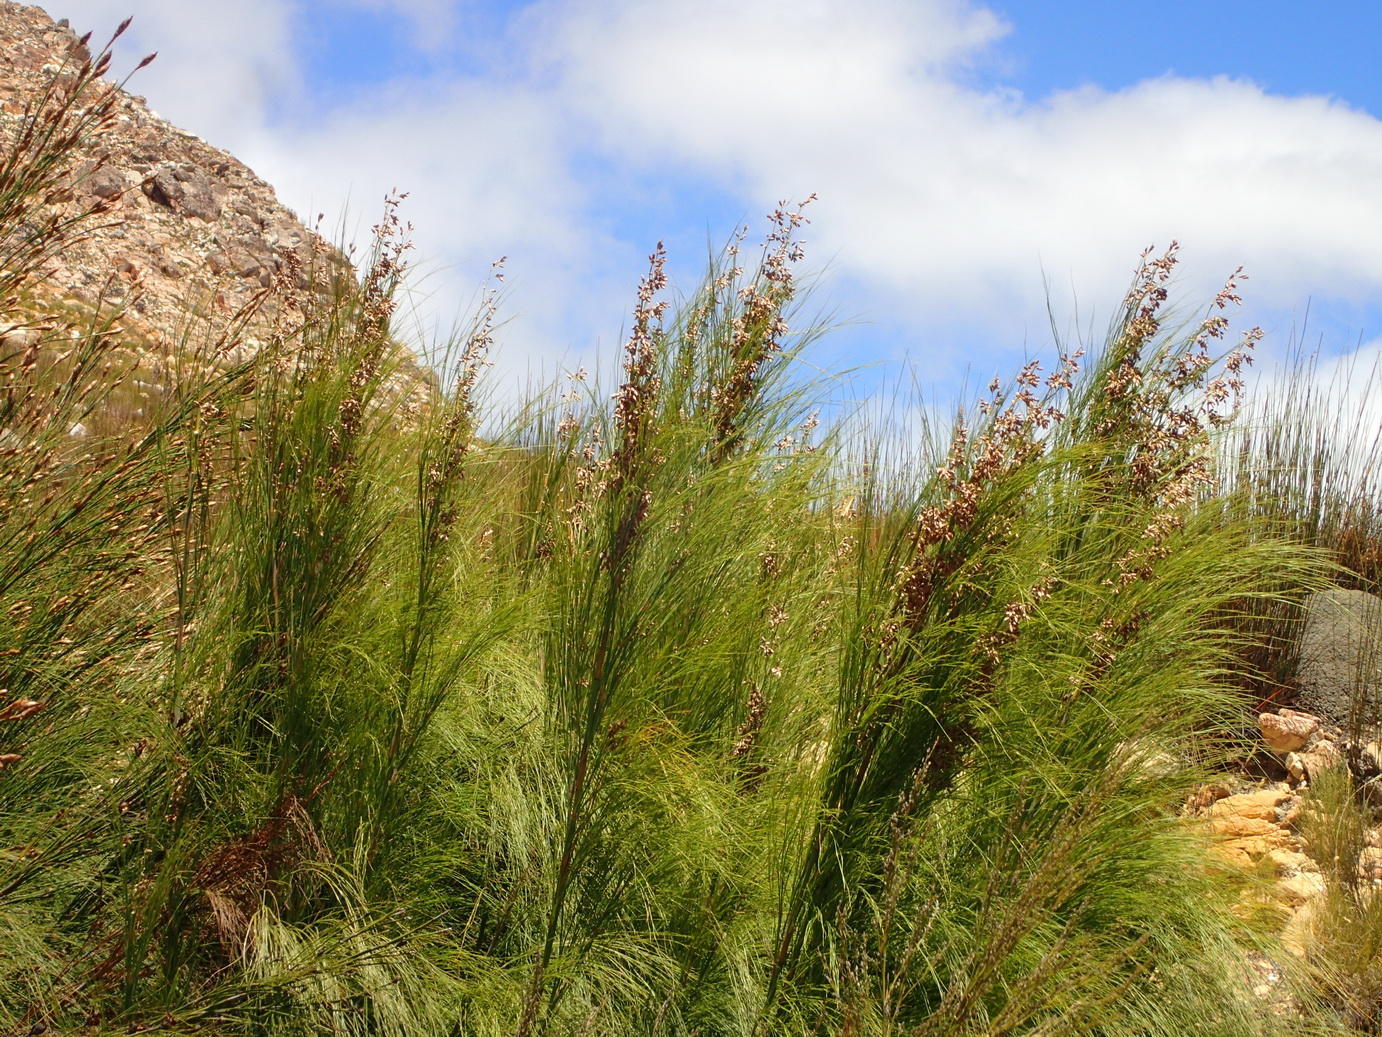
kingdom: Plantae
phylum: Tracheophyta
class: Liliopsida
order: Poales
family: Restionaceae
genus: Cannomois
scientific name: Cannomois grandis
